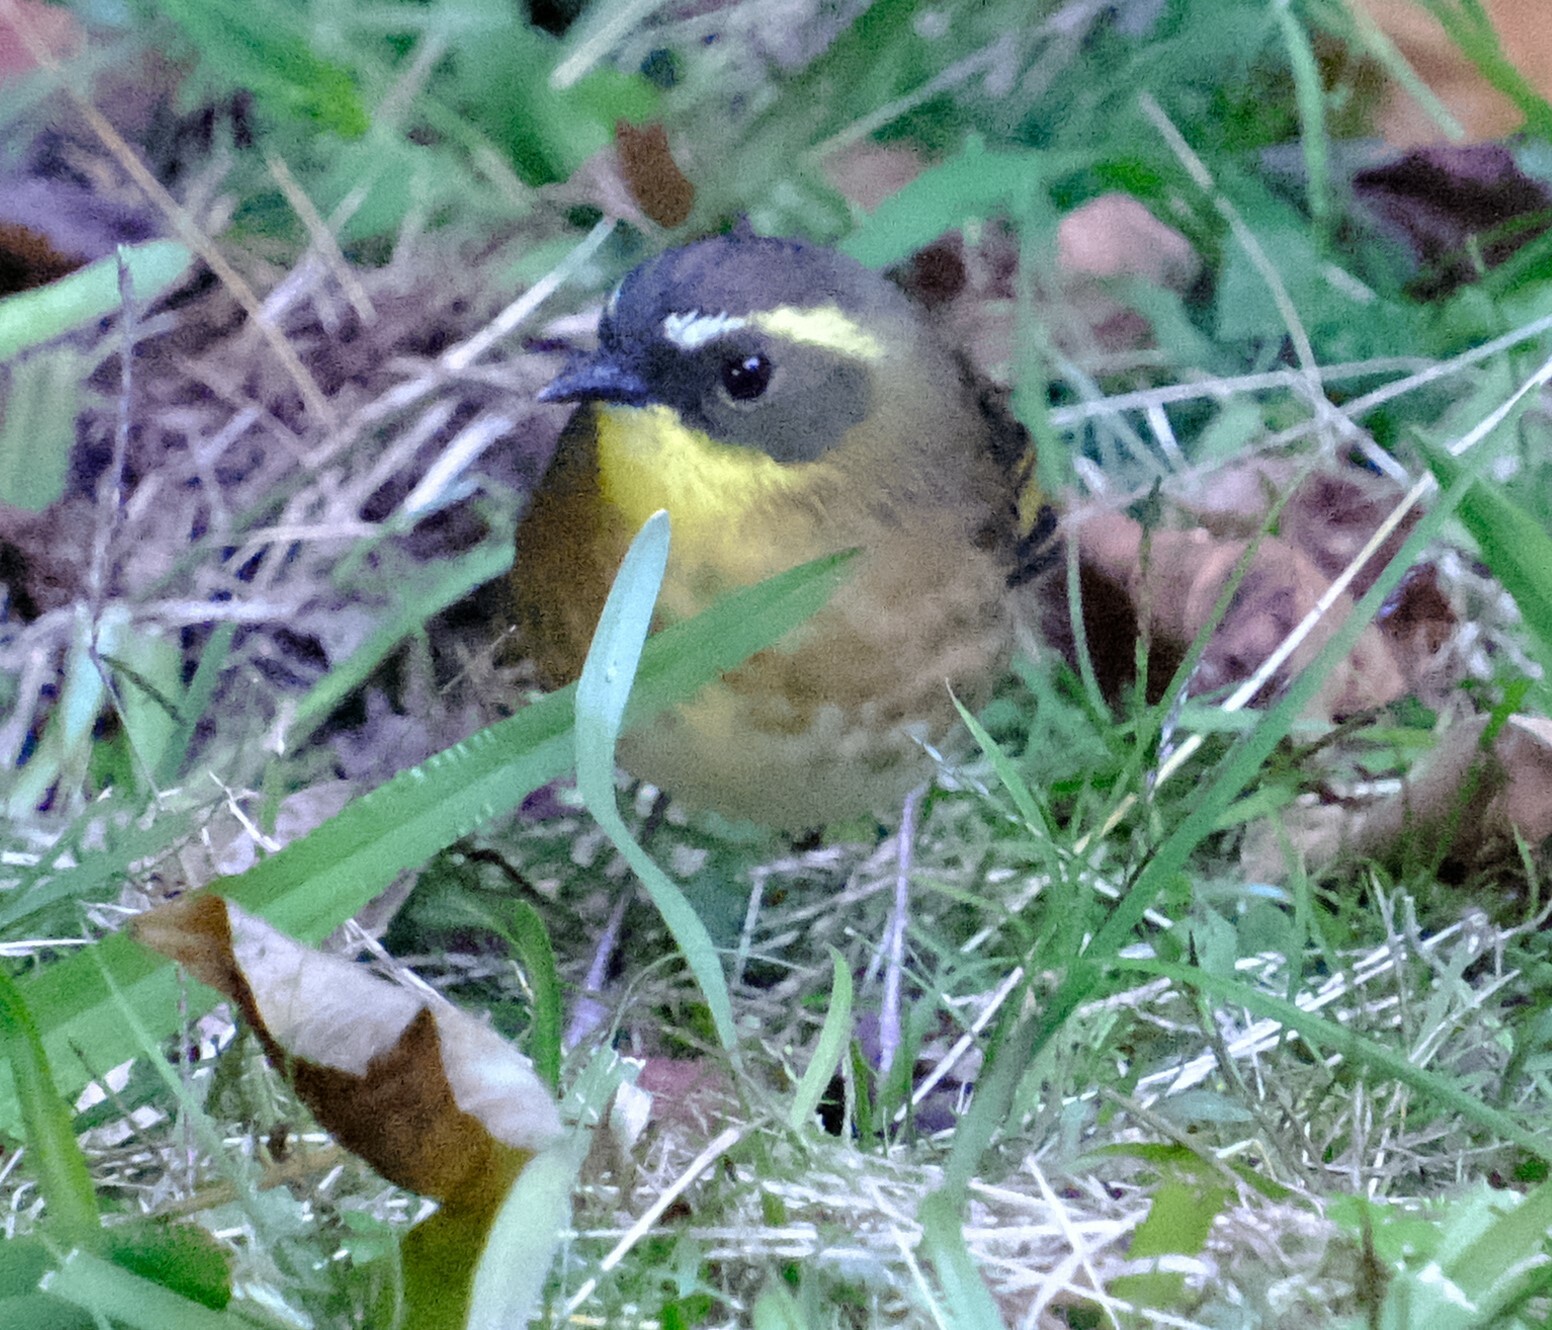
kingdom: Animalia
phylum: Chordata
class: Aves
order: Passeriformes
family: Acanthizidae
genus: Sericornis
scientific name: Sericornis citreogularis
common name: Yellow-throated scrubwren
